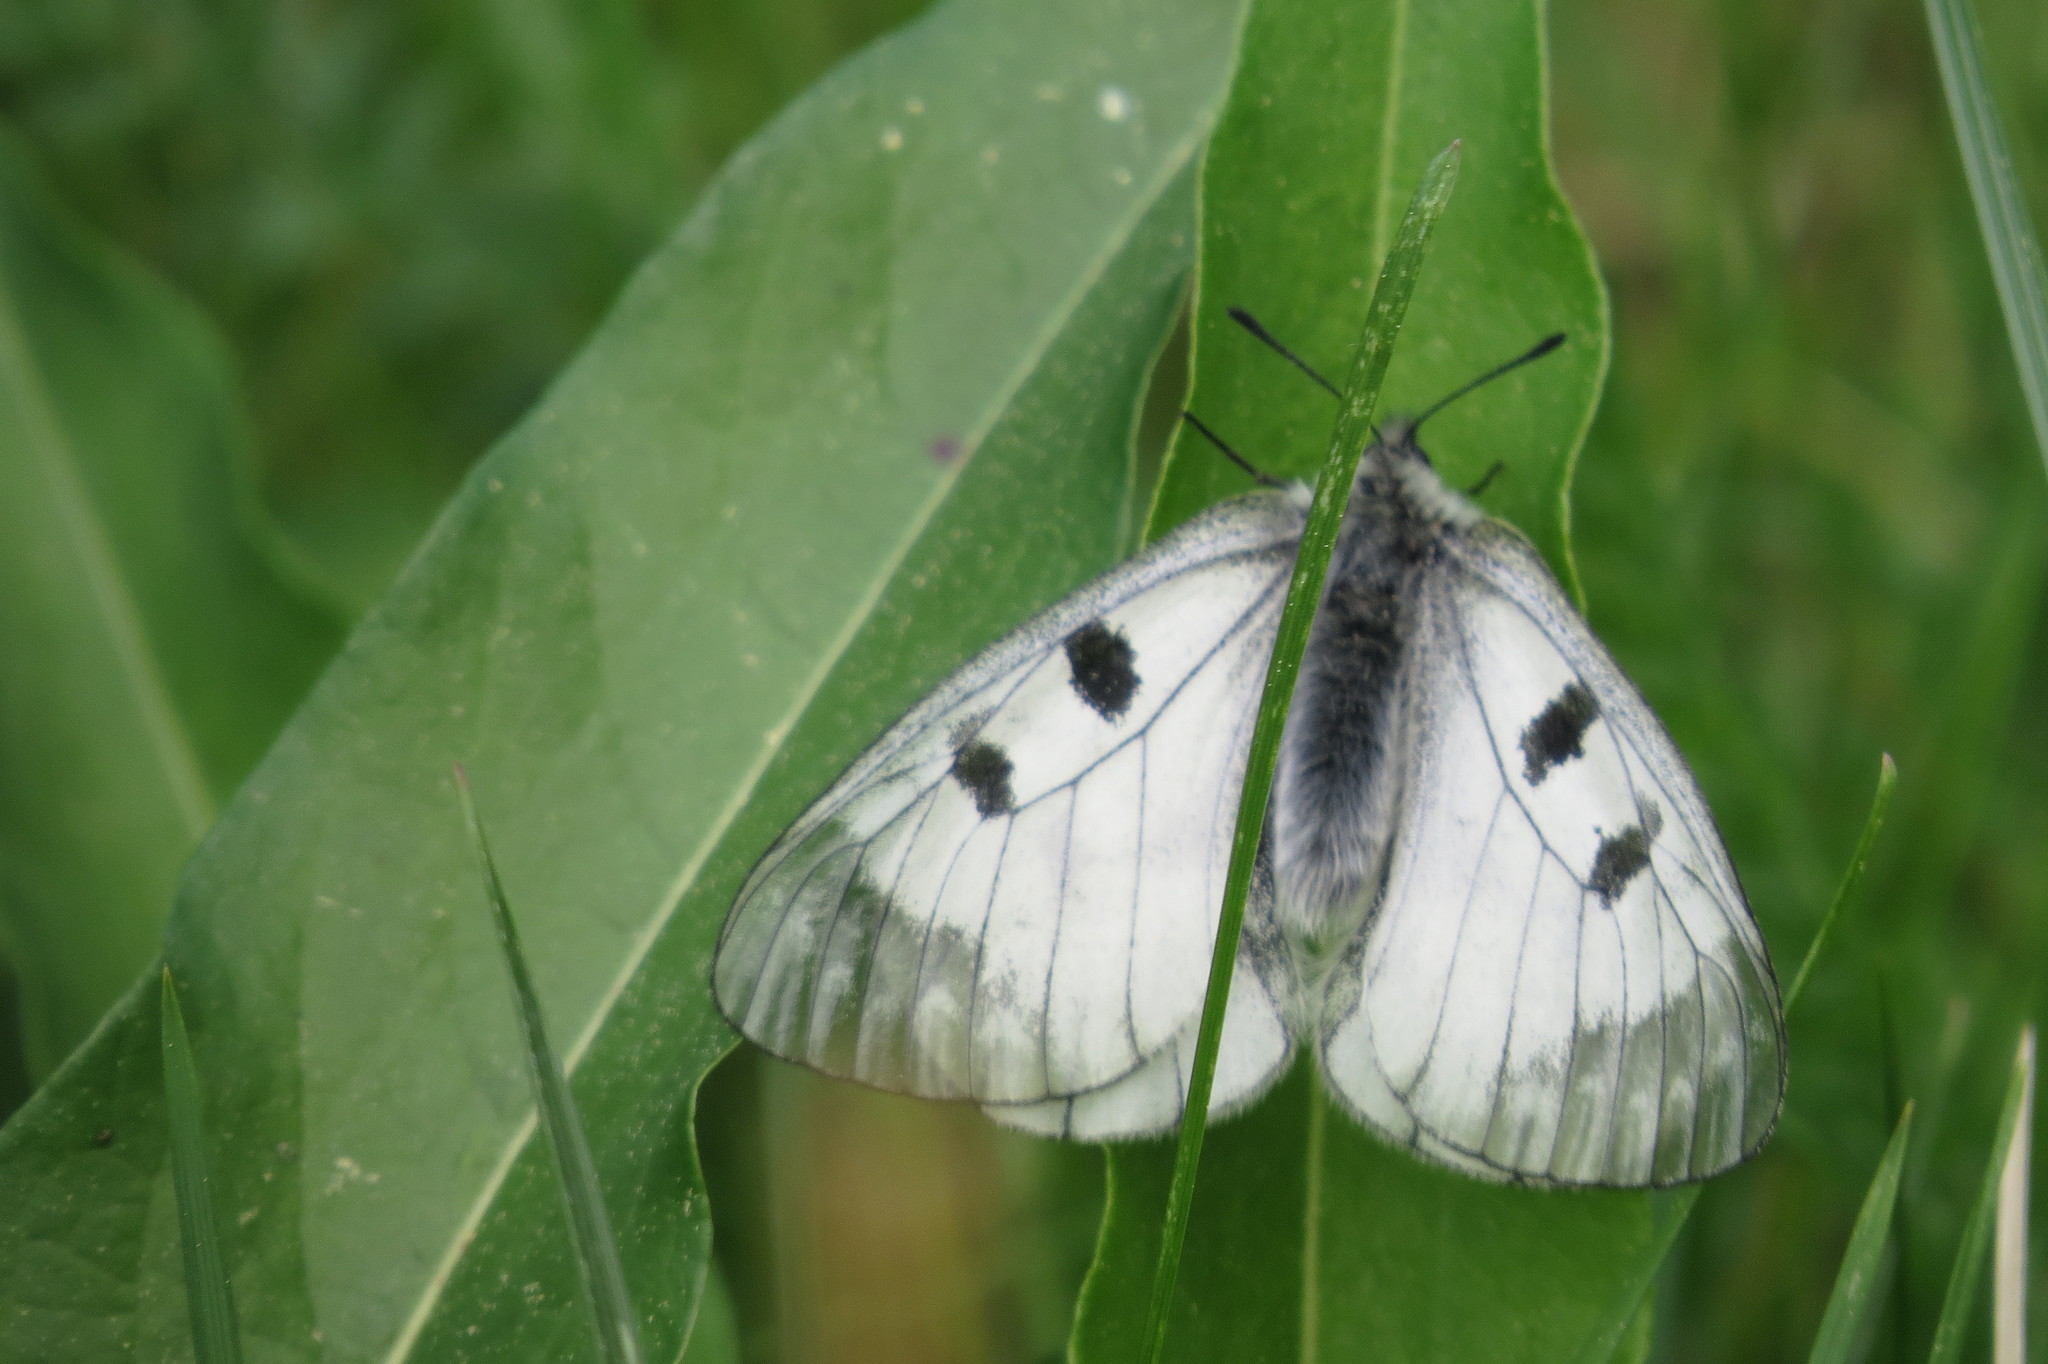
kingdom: Animalia
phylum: Arthropoda
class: Insecta
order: Lepidoptera
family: Papilionidae
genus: Parnassius
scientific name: Parnassius mnemosyne
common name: Clouded apollo
